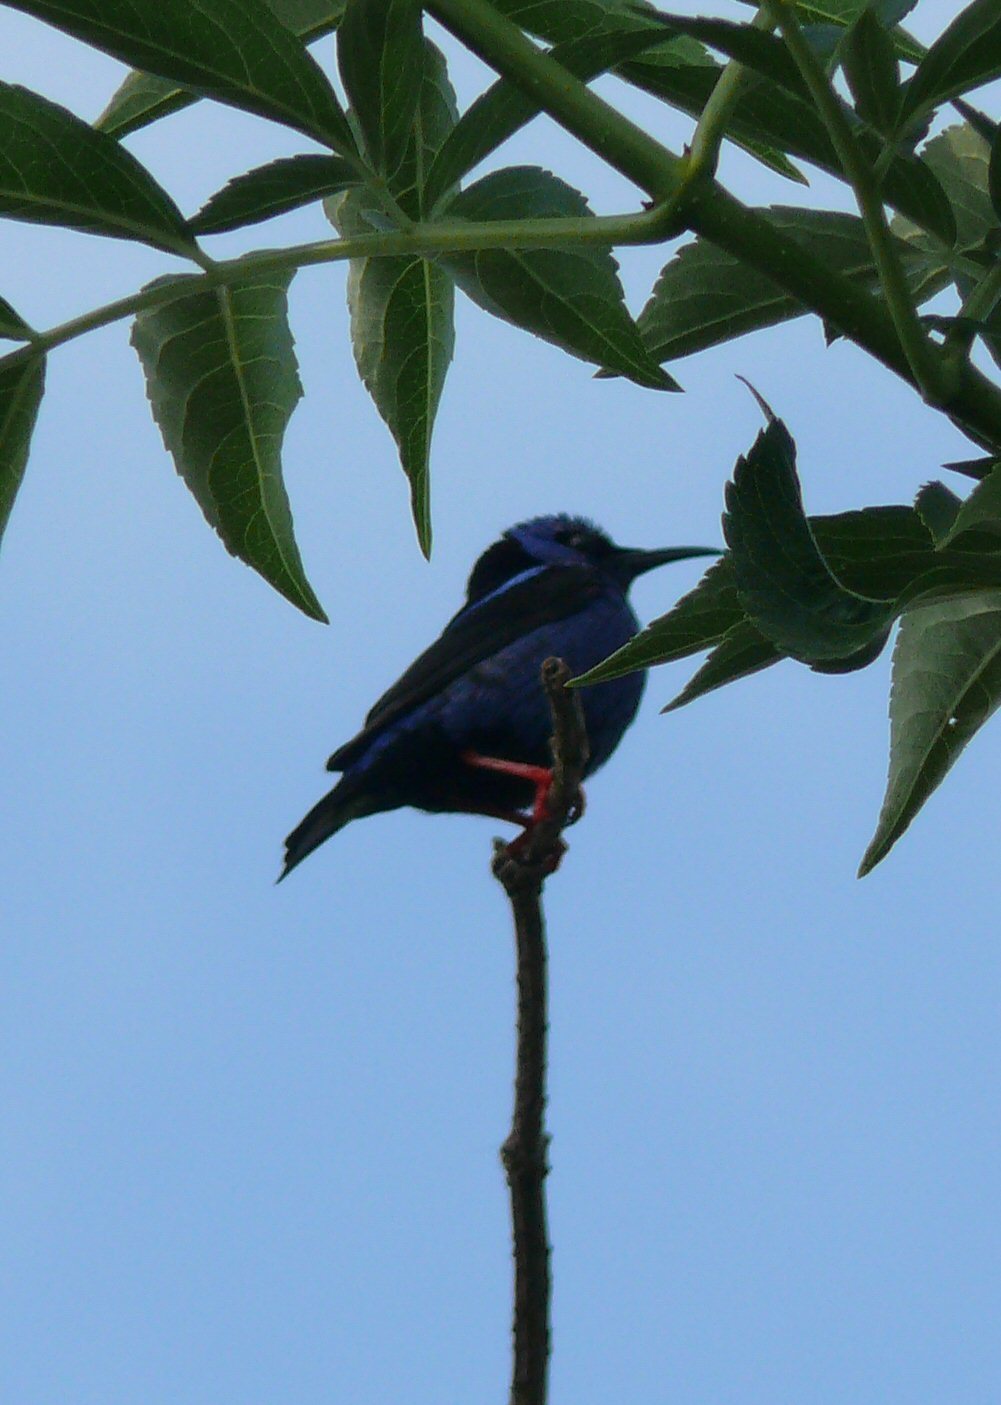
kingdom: Animalia
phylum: Chordata
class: Aves
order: Passeriformes
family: Thraupidae
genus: Cyanerpes
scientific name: Cyanerpes cyaneus
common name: Red-legged honeycreeper
